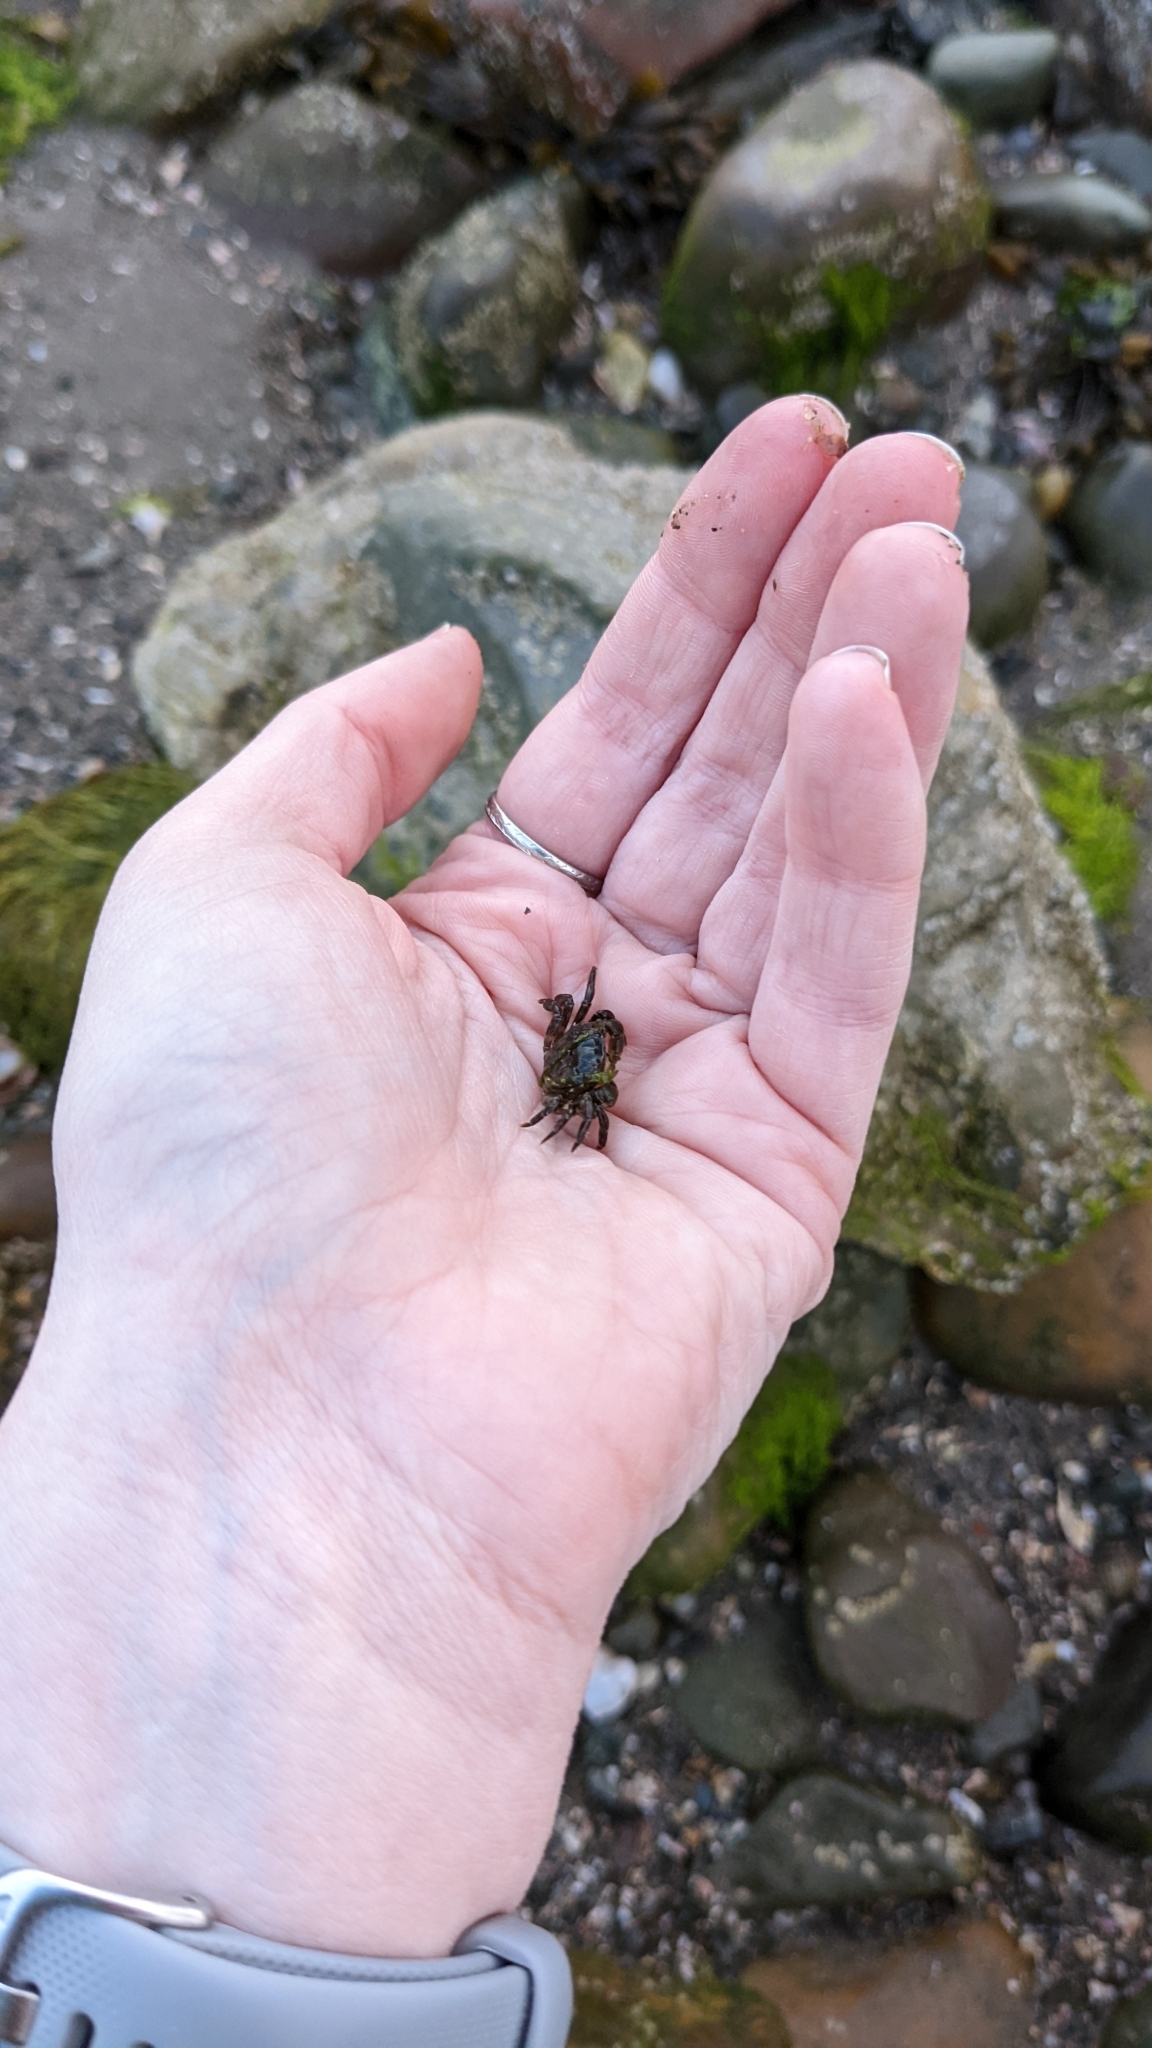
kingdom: Animalia
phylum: Arthropoda
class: Malacostraca
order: Decapoda
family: Varunidae
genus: Hemigrapsus
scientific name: Hemigrapsus sanguineus
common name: Asian shore crab
